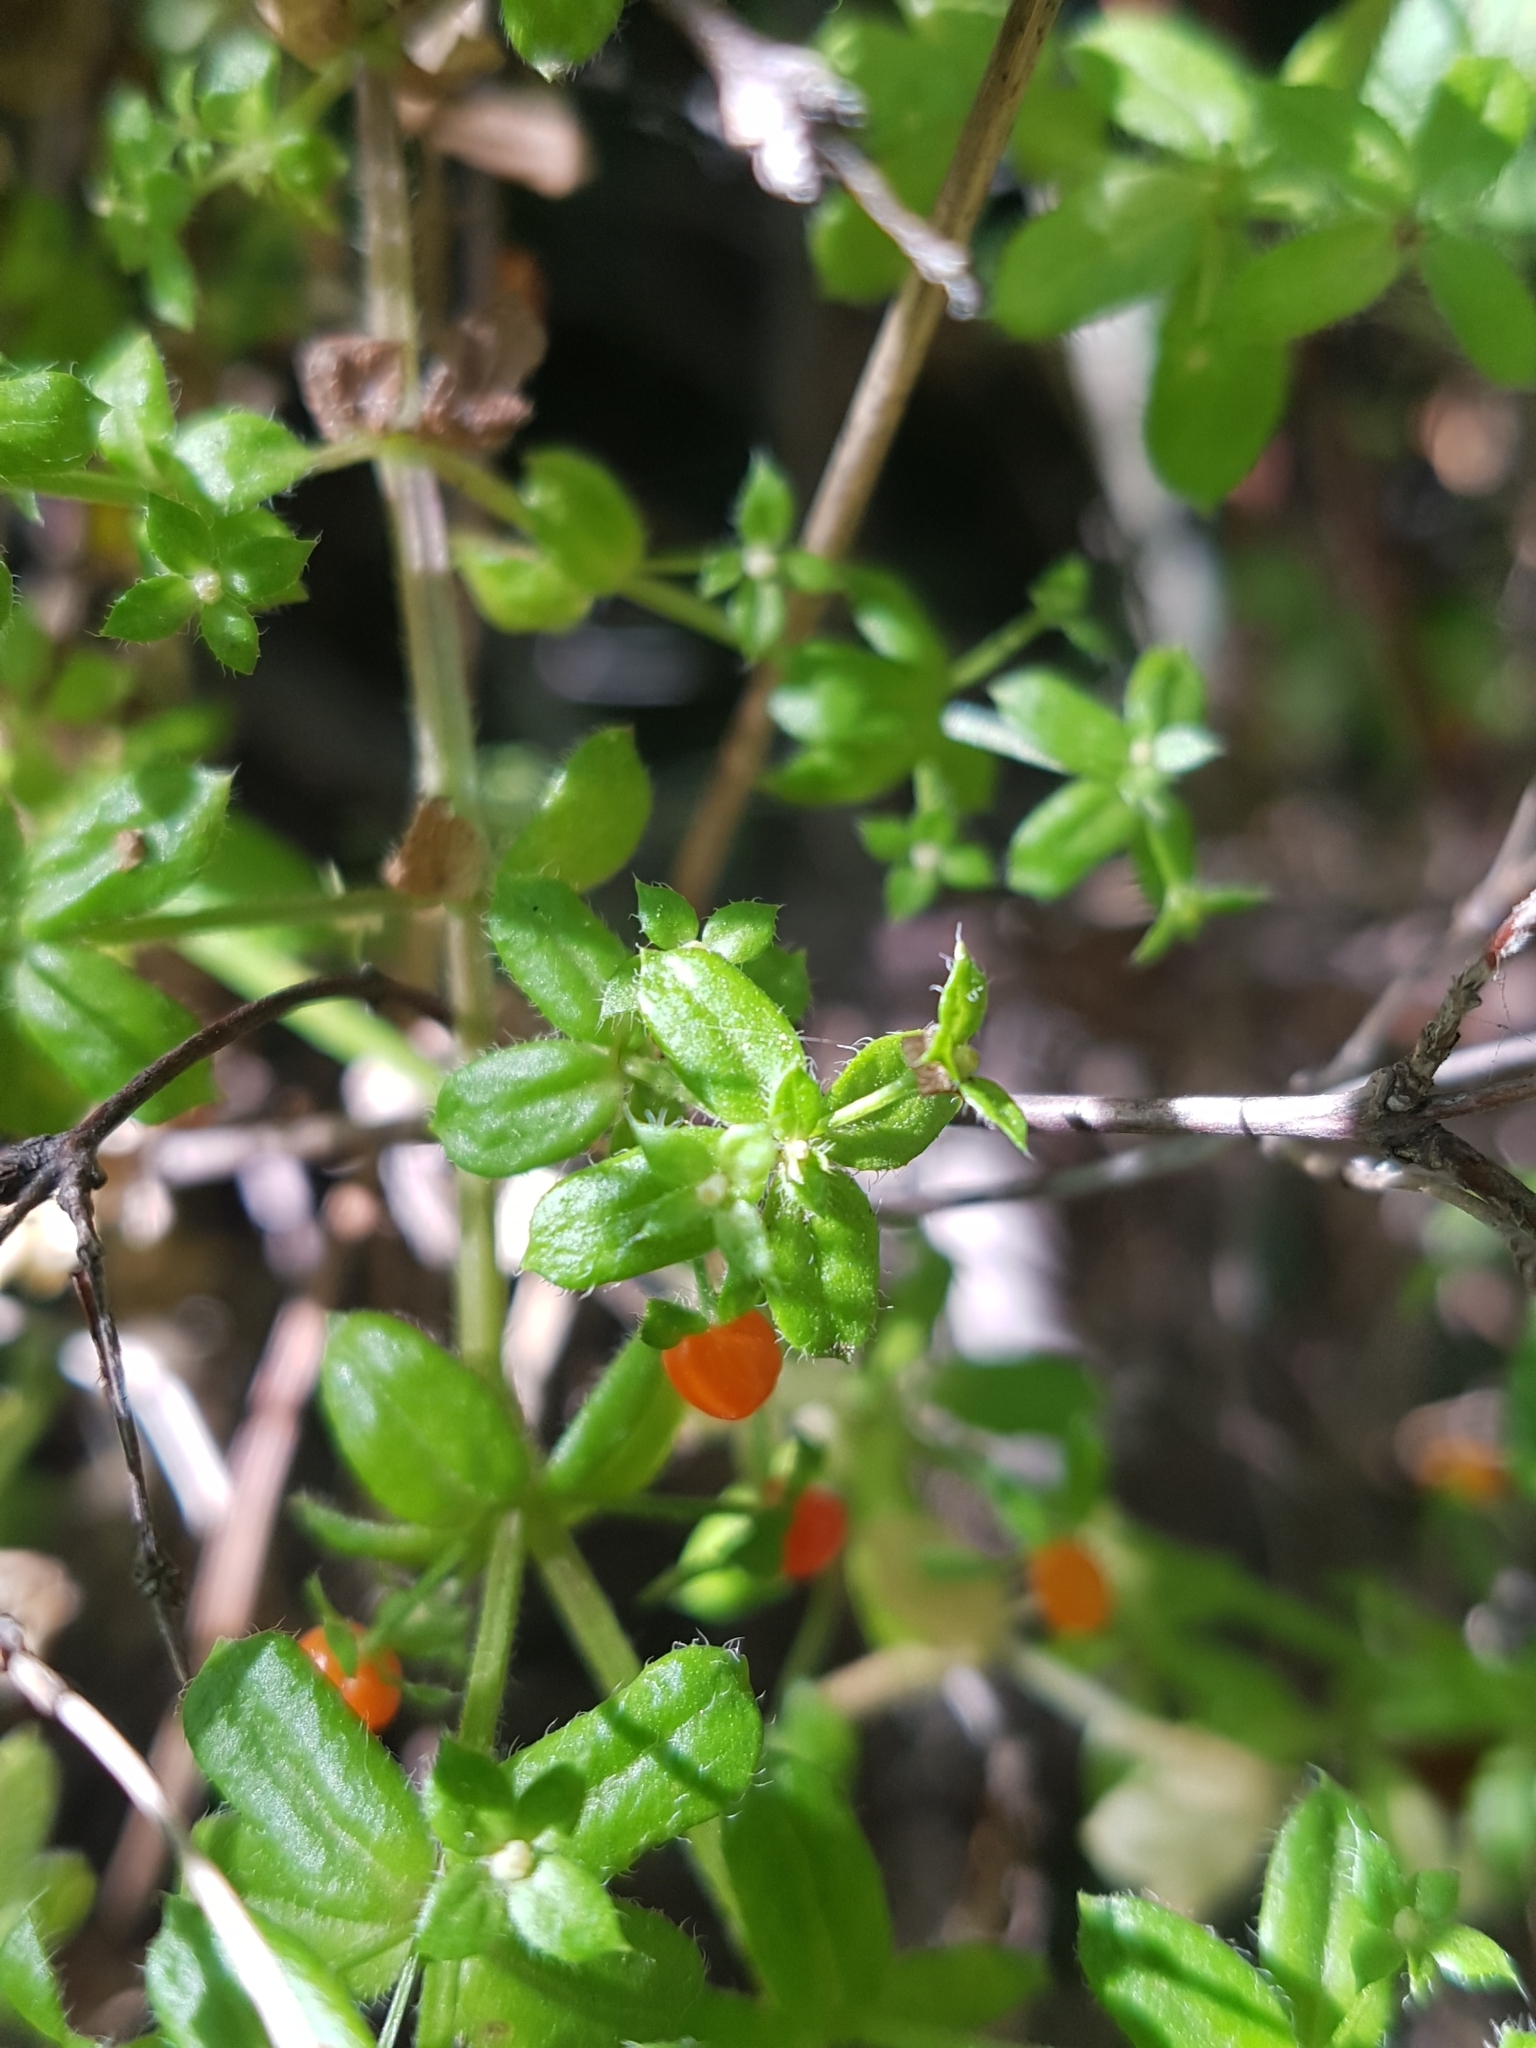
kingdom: Plantae
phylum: Tracheophyta
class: Magnoliopsida
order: Gentianales
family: Rubiaceae
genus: Galium
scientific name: Galium hypocarpium
